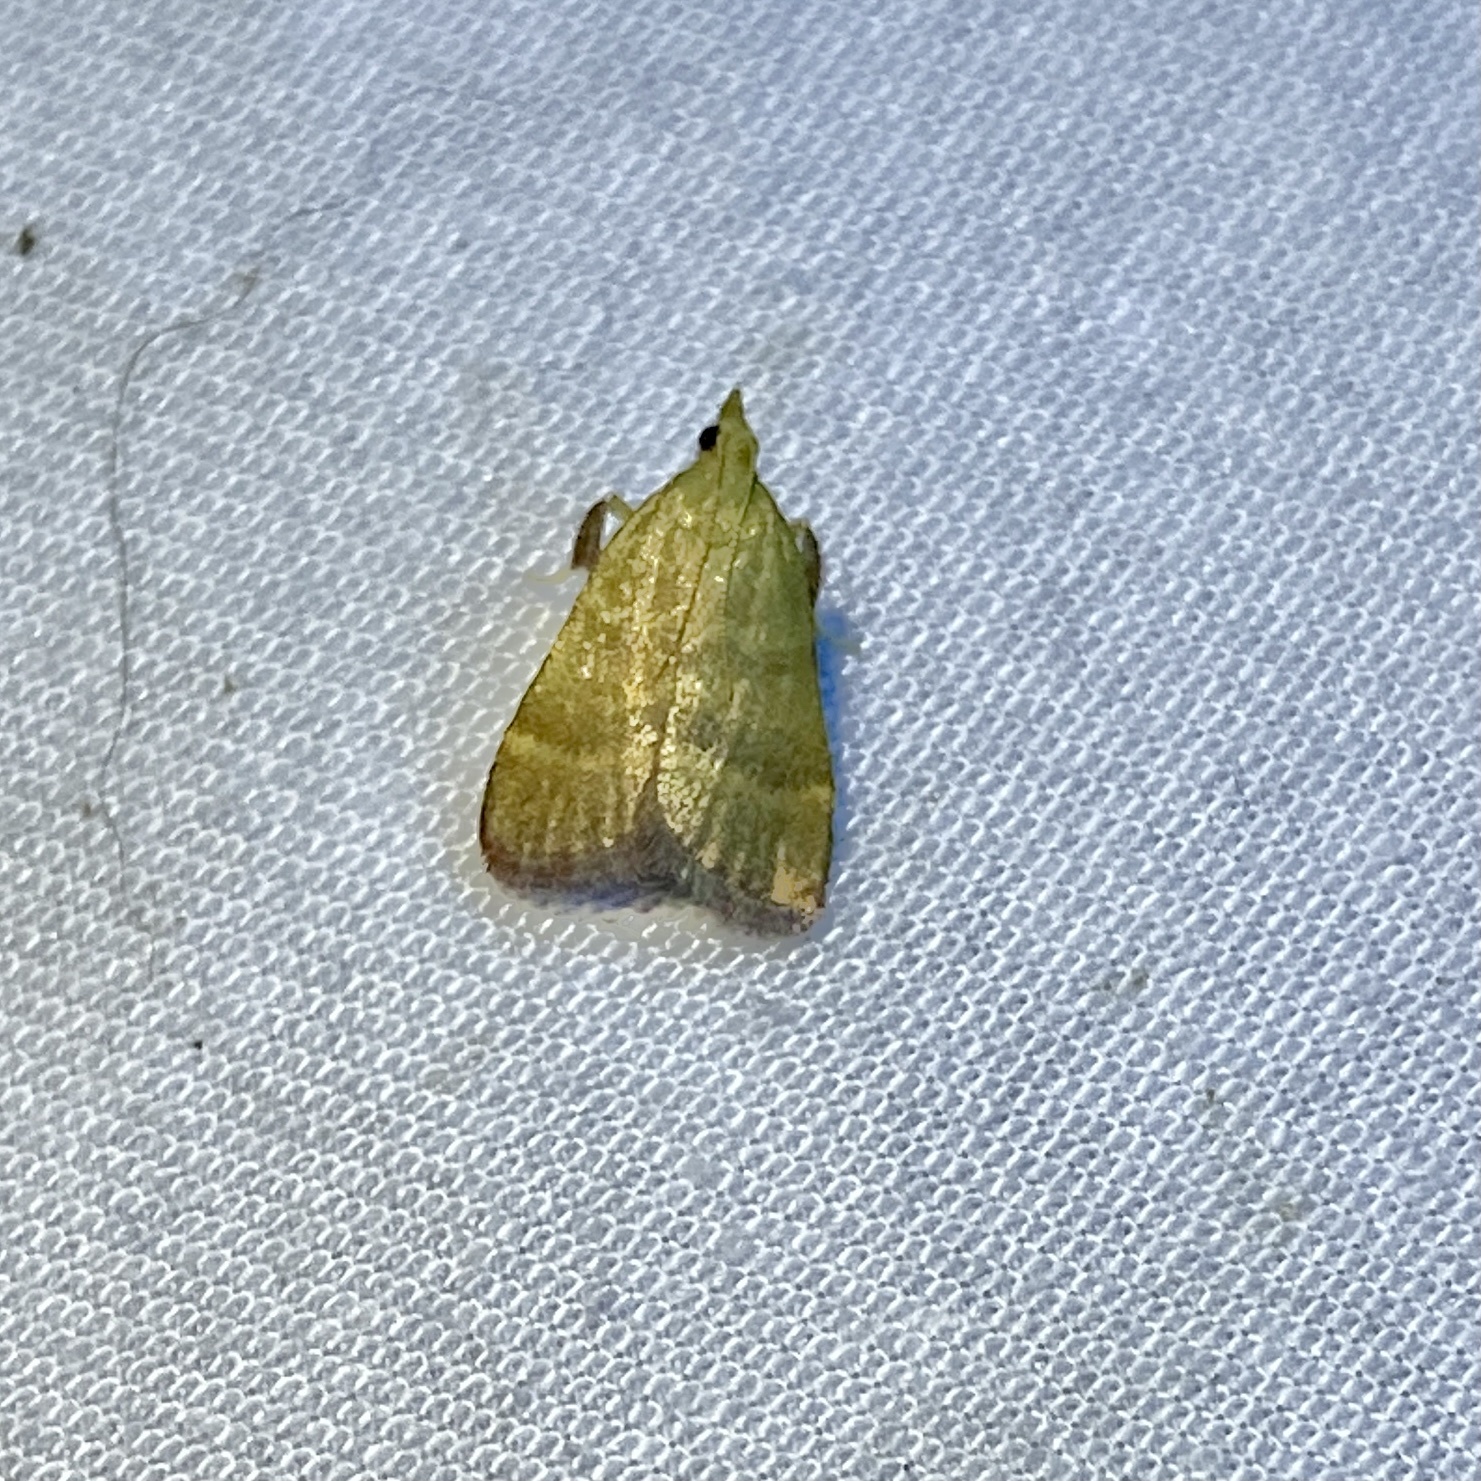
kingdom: Animalia
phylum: Arthropoda
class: Insecta
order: Lepidoptera
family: Pyralidae
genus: Condylolomia
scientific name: Condylolomia participialis
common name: Drab condylolomia moth
